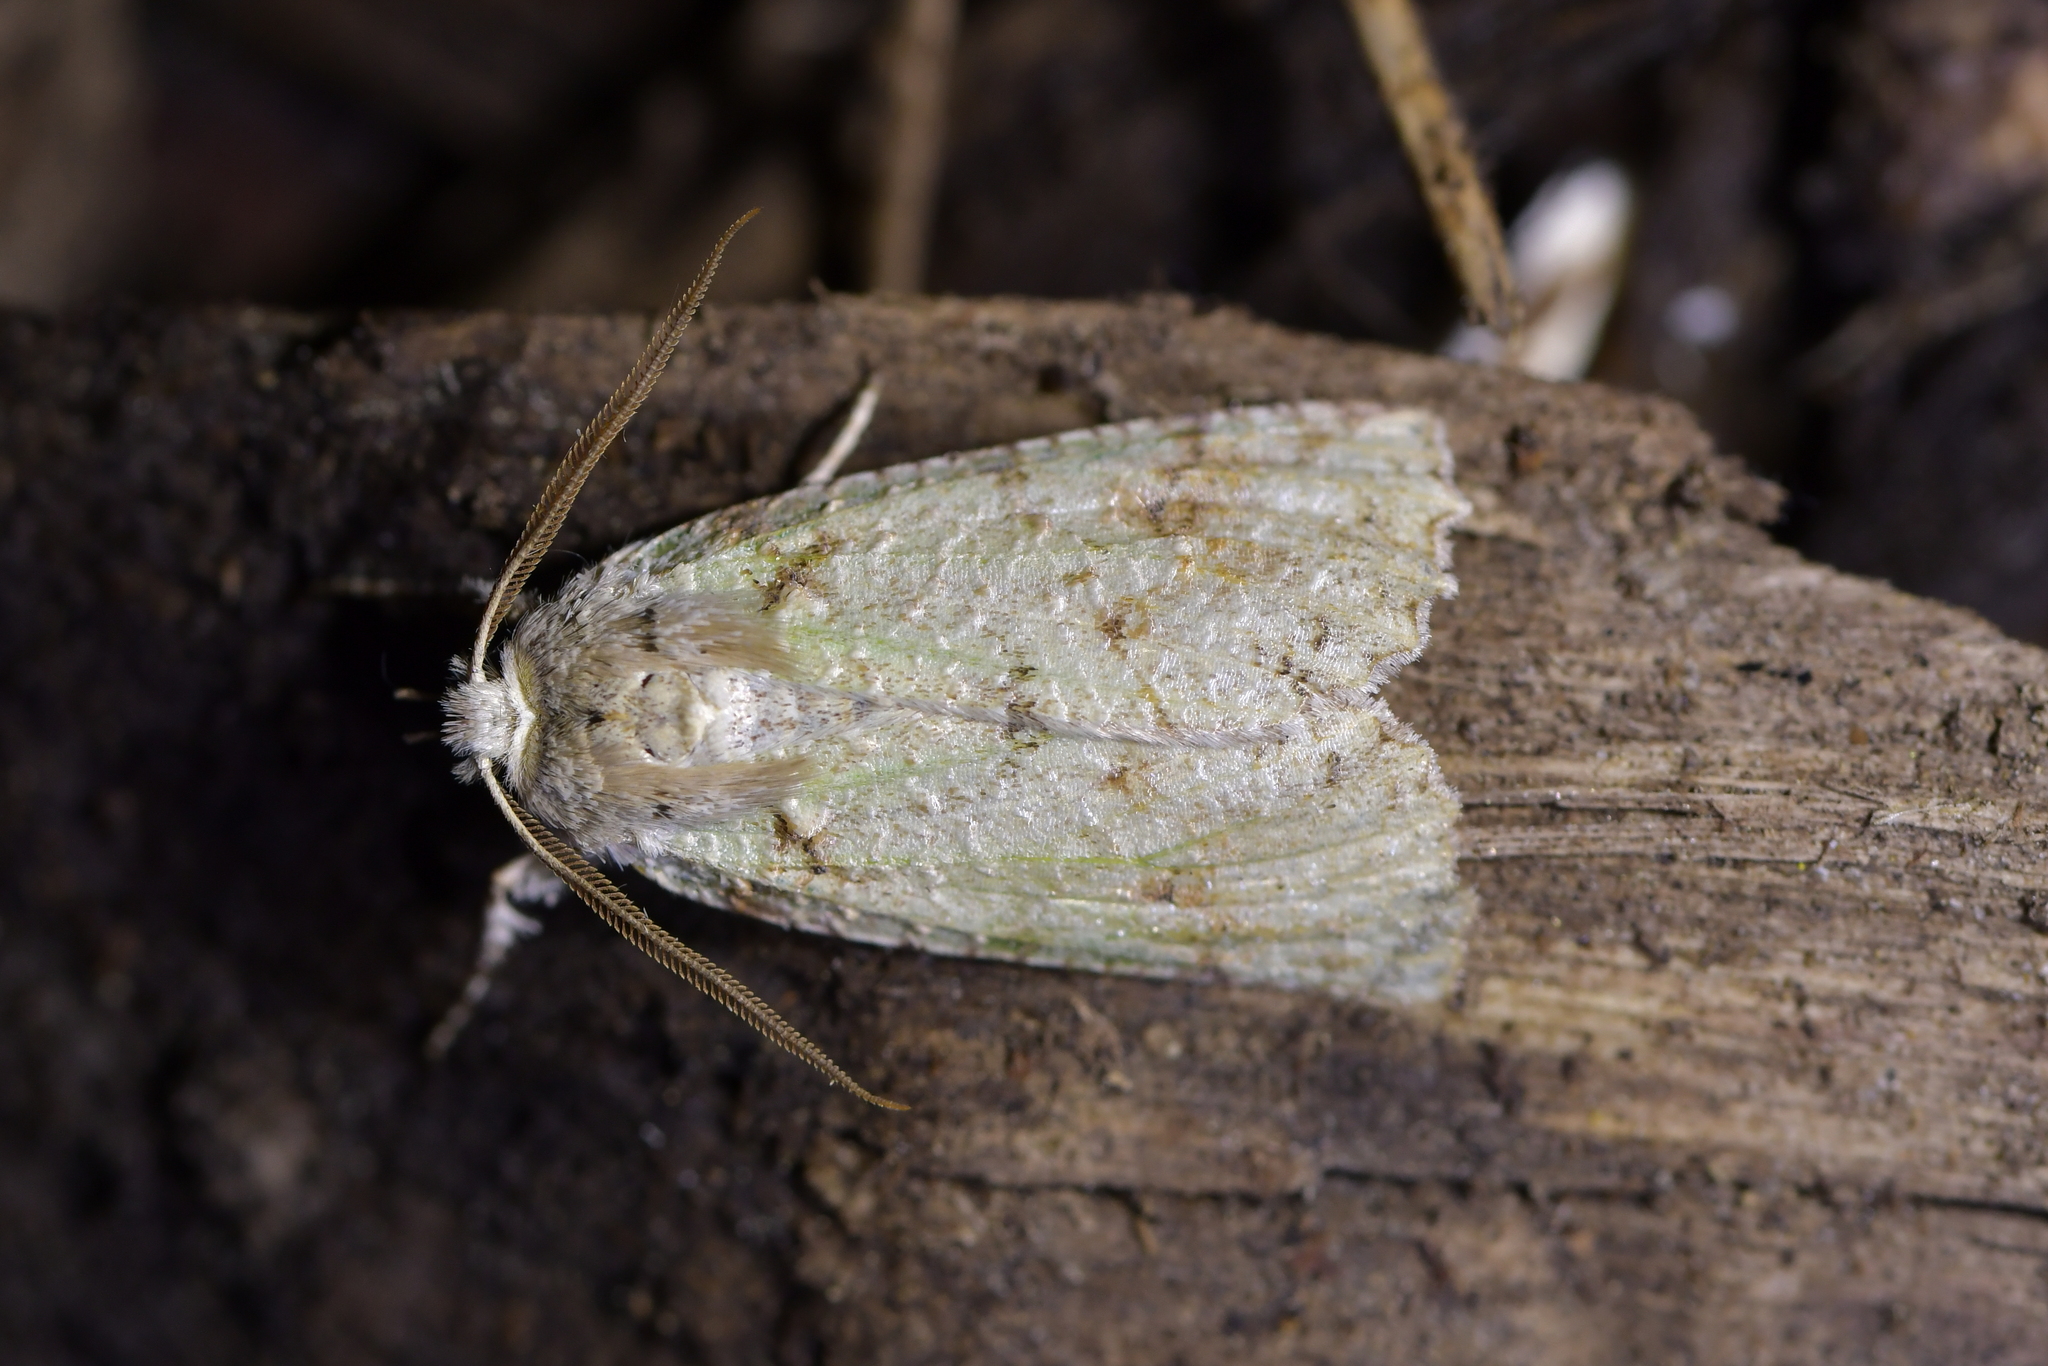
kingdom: Animalia
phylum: Arthropoda
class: Insecta
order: Lepidoptera
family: Geometridae
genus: Declana
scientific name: Declana floccosa
